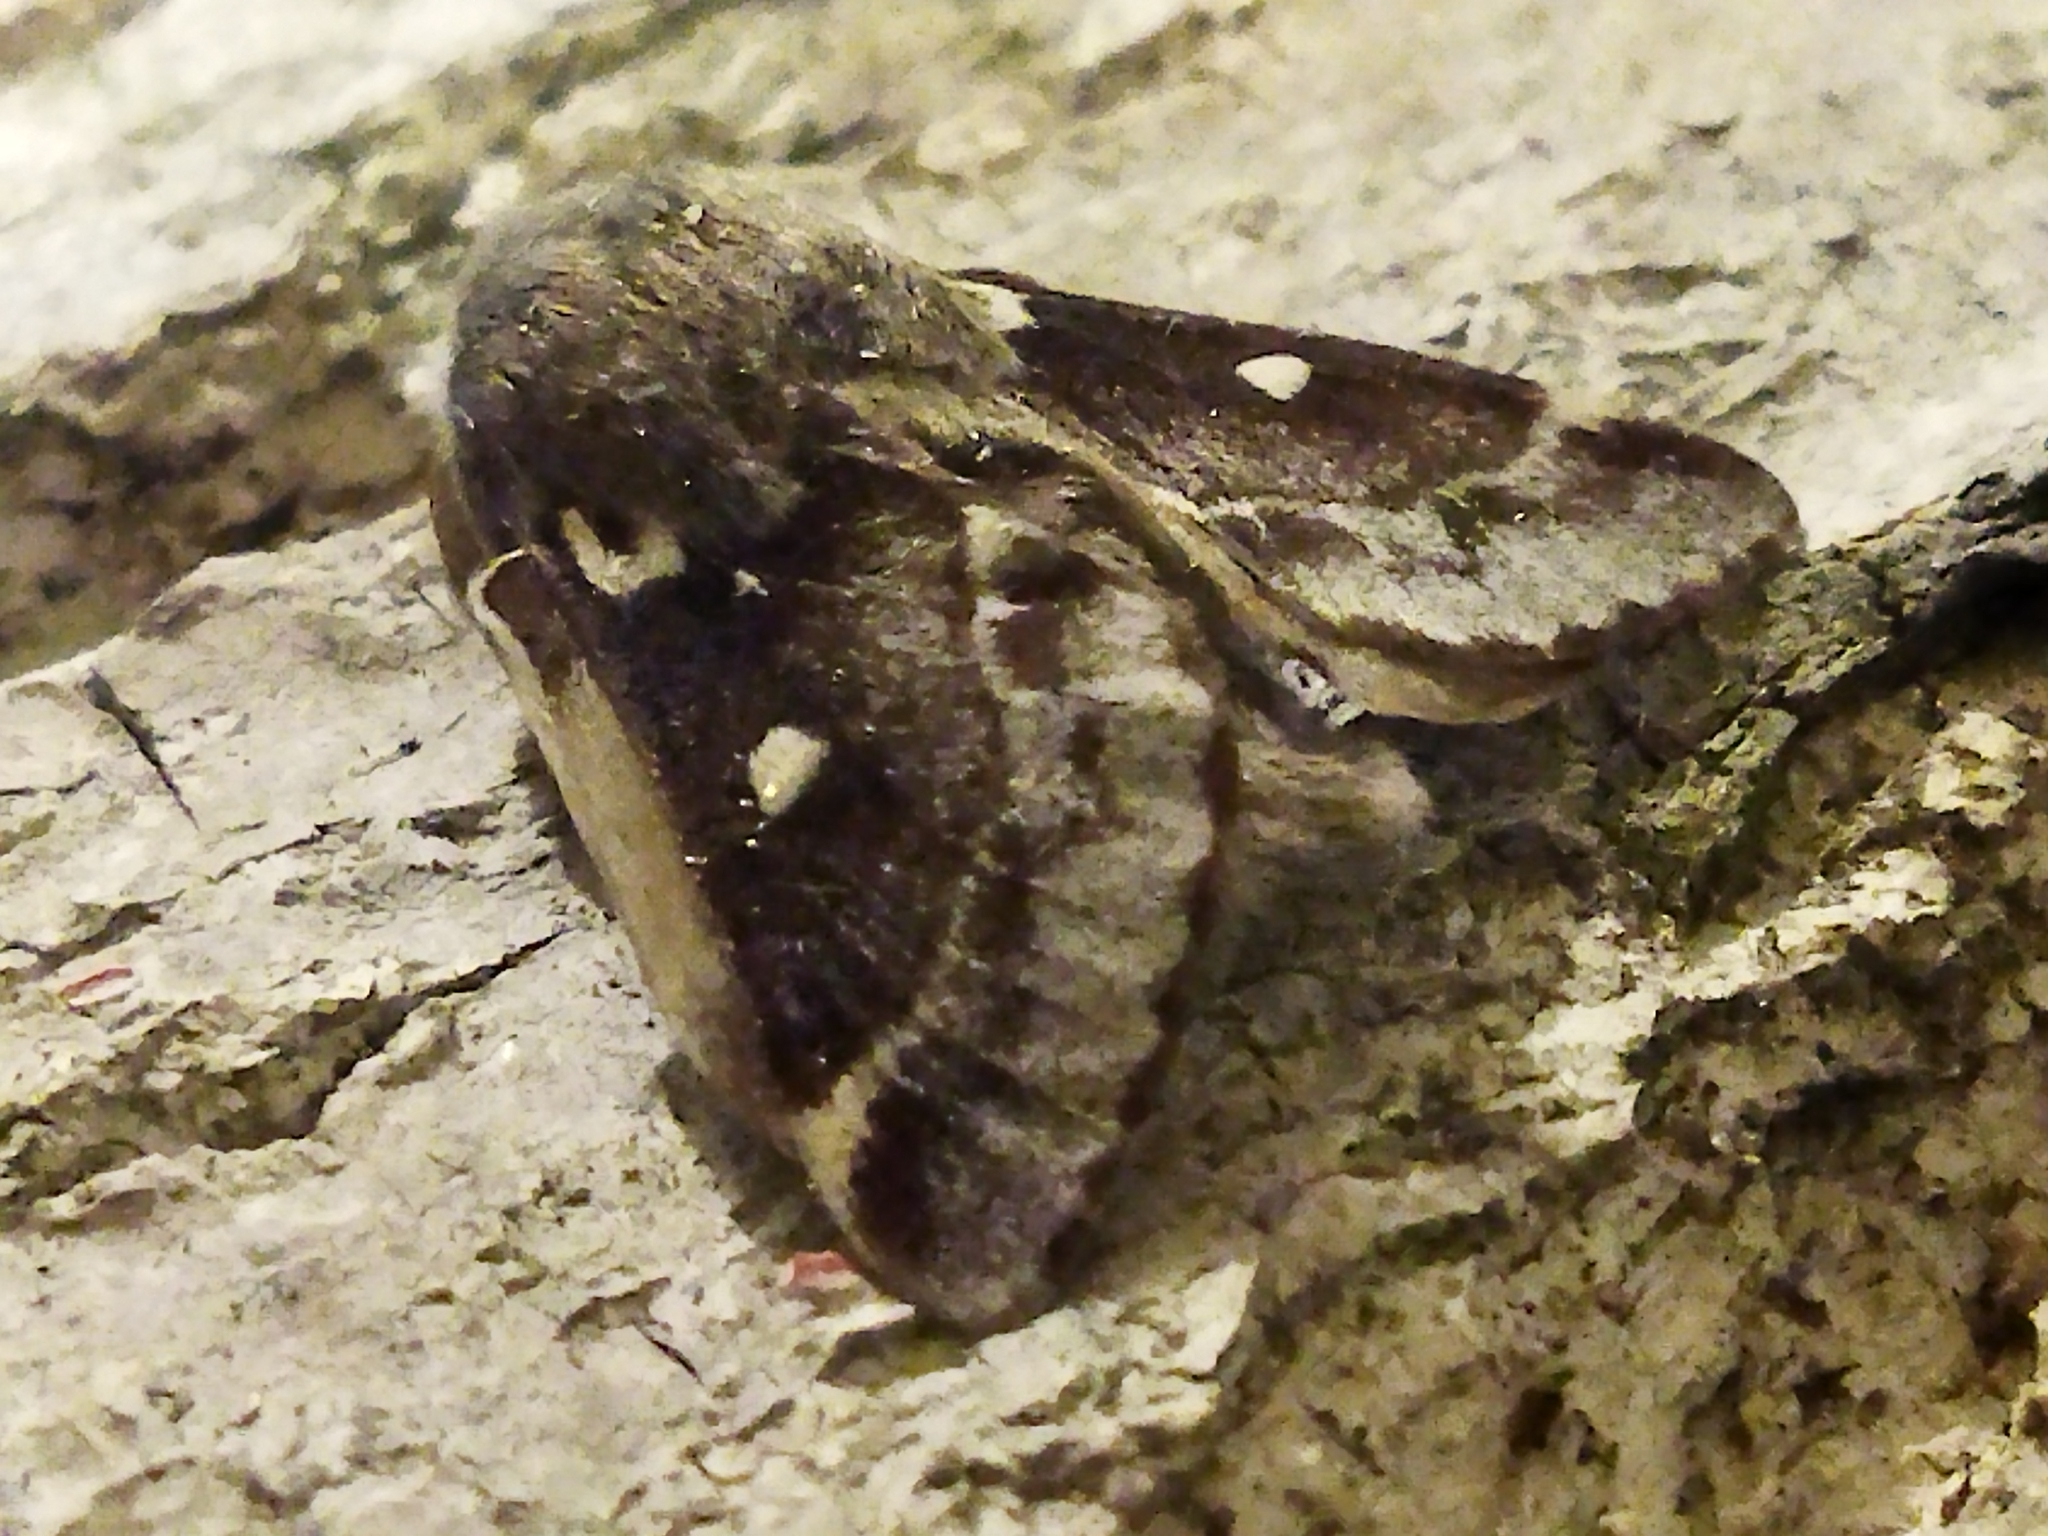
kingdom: Animalia
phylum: Arthropoda
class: Insecta
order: Lepidoptera
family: Lasiocampidae
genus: Eriogaster
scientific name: Eriogaster lanestris
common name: Small eggar
